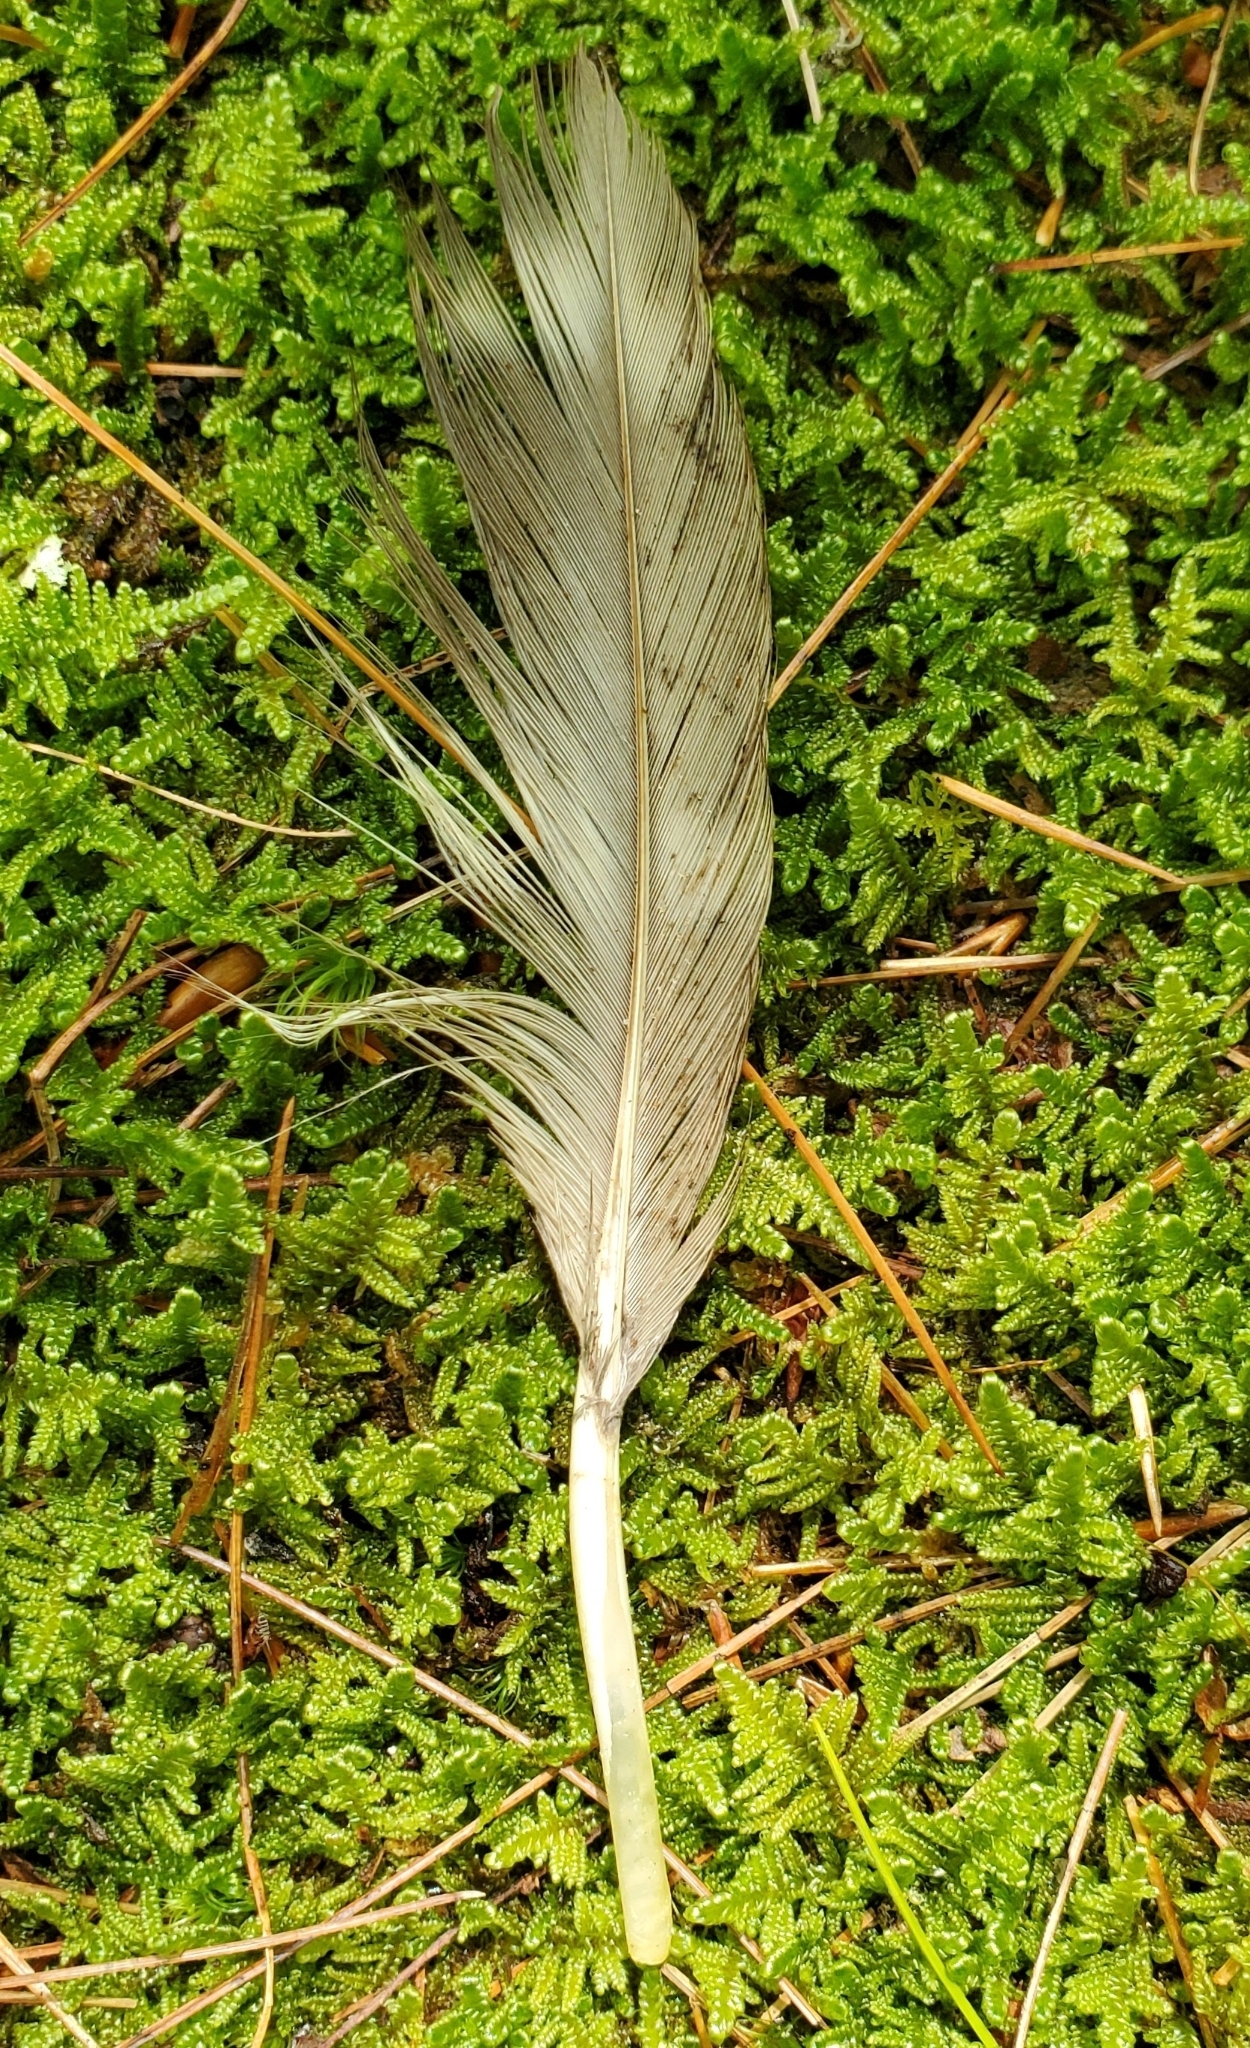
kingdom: Animalia
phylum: Chordata
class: Aves
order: Strigiformes
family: Strigidae
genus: Strix
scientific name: Strix varia
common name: Barred owl
